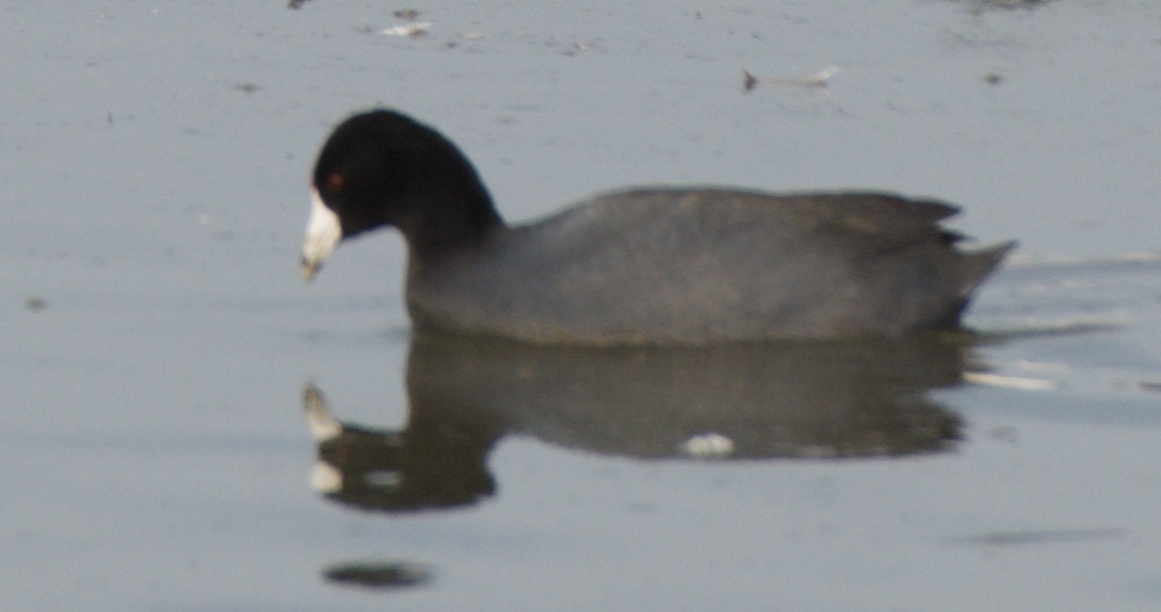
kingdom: Animalia
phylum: Chordata
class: Aves
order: Gruiformes
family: Rallidae
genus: Fulica
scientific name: Fulica americana
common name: American coot
